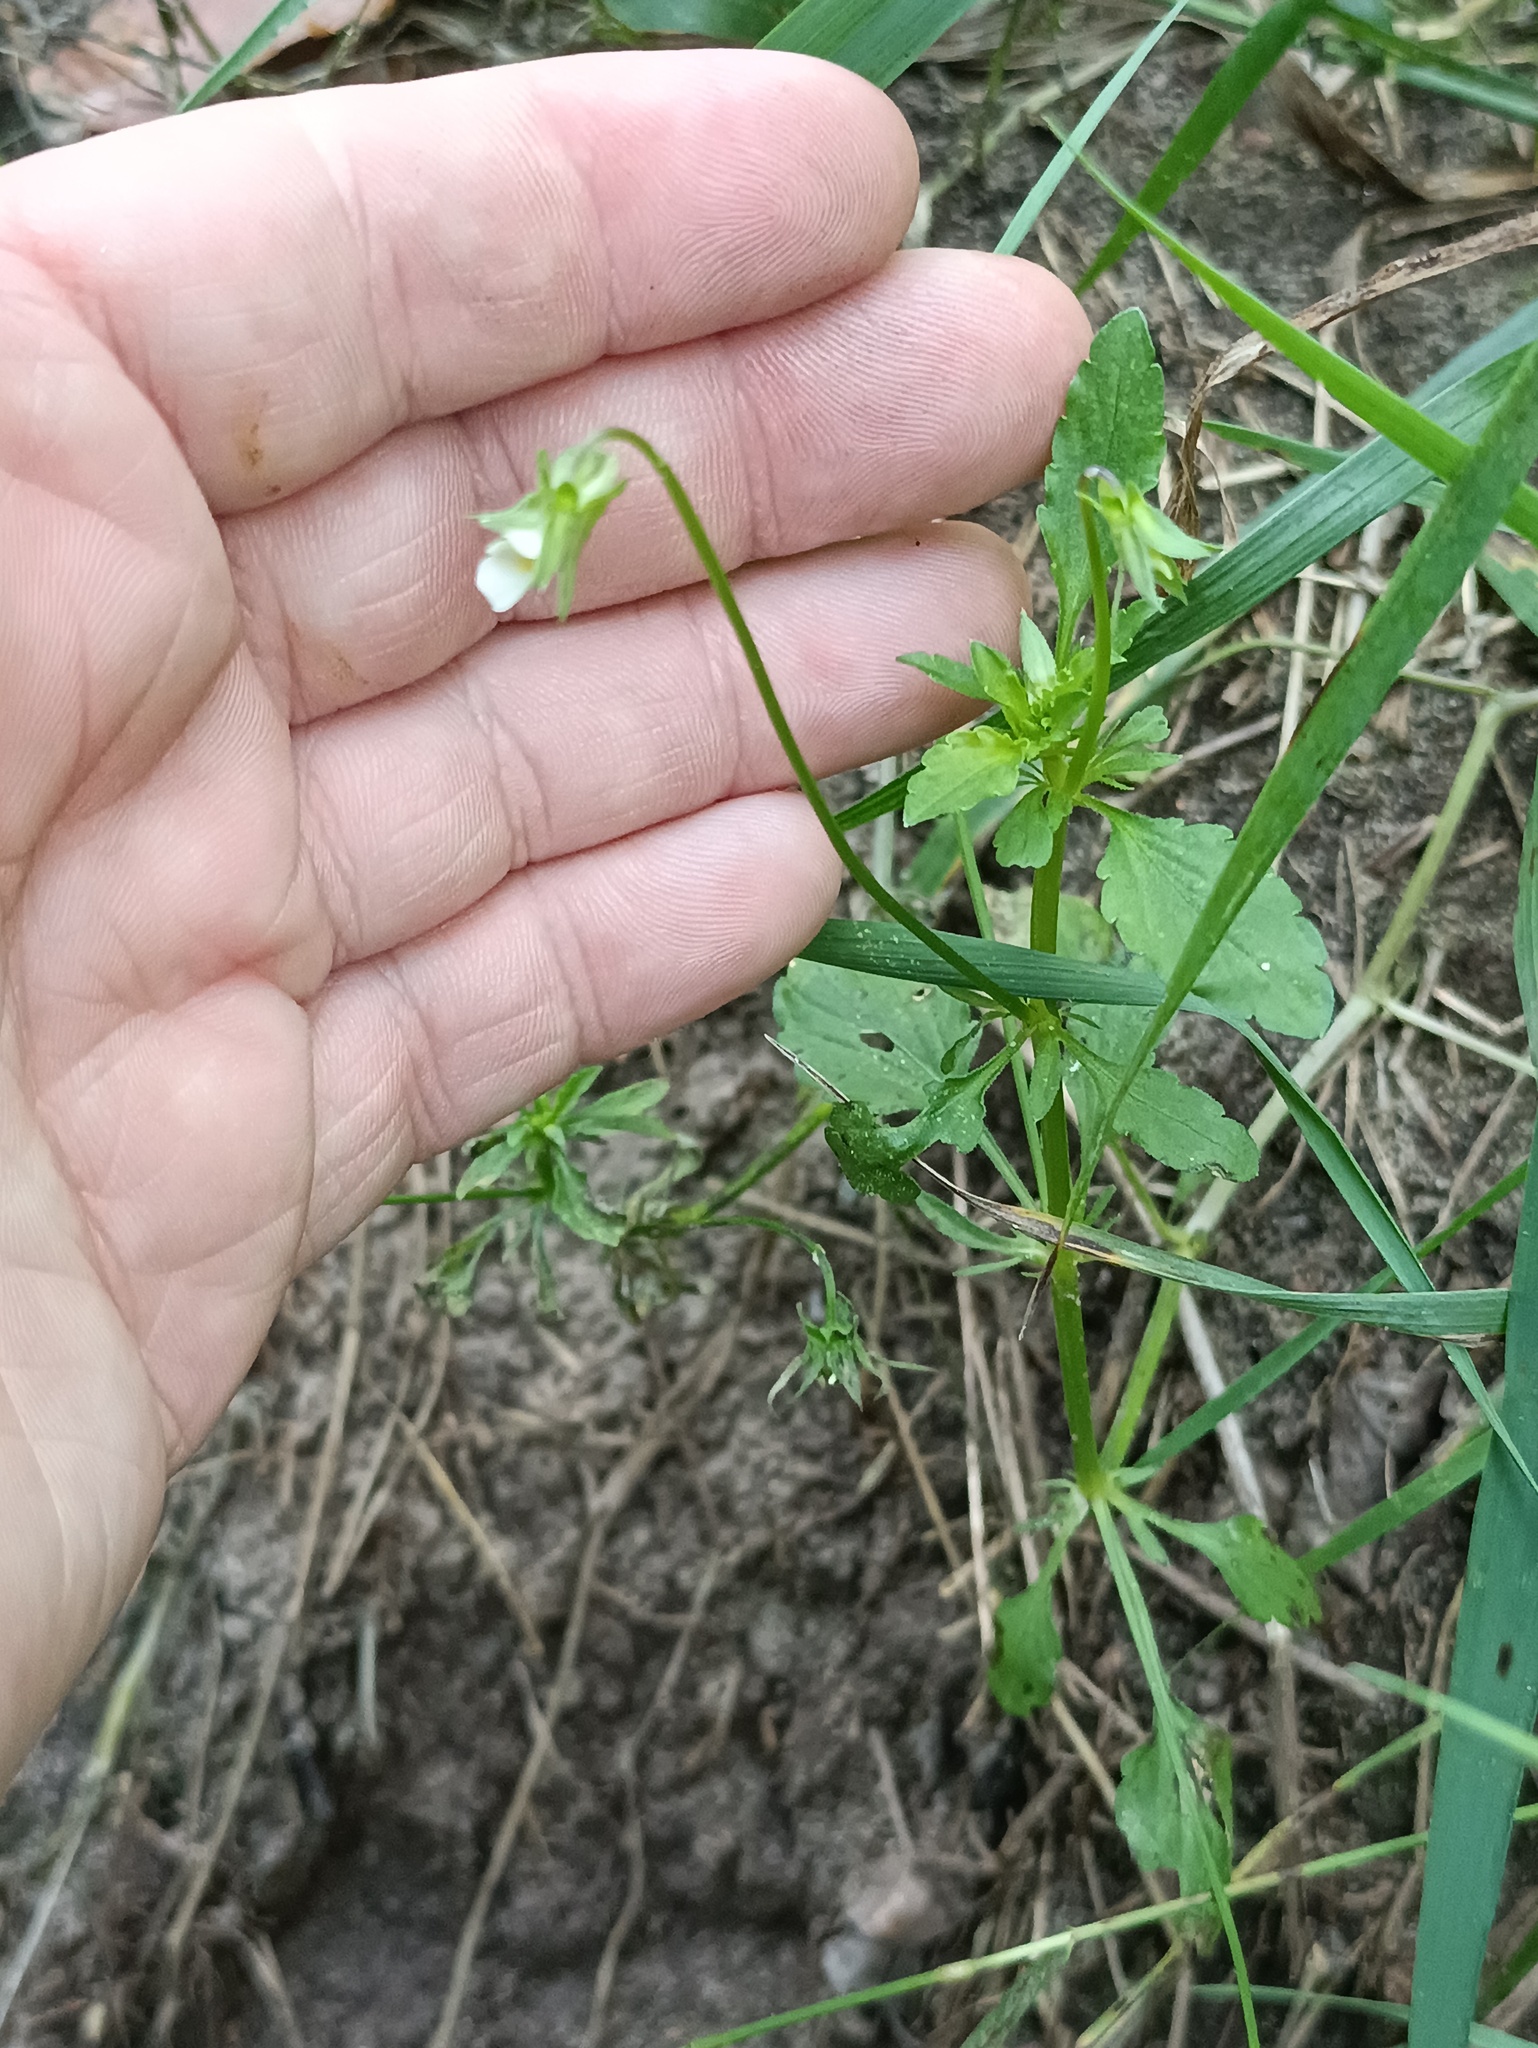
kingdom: Plantae
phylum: Tracheophyta
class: Magnoliopsida
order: Malpighiales
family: Violaceae
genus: Viola
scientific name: Viola arvensis
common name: Field pansy
